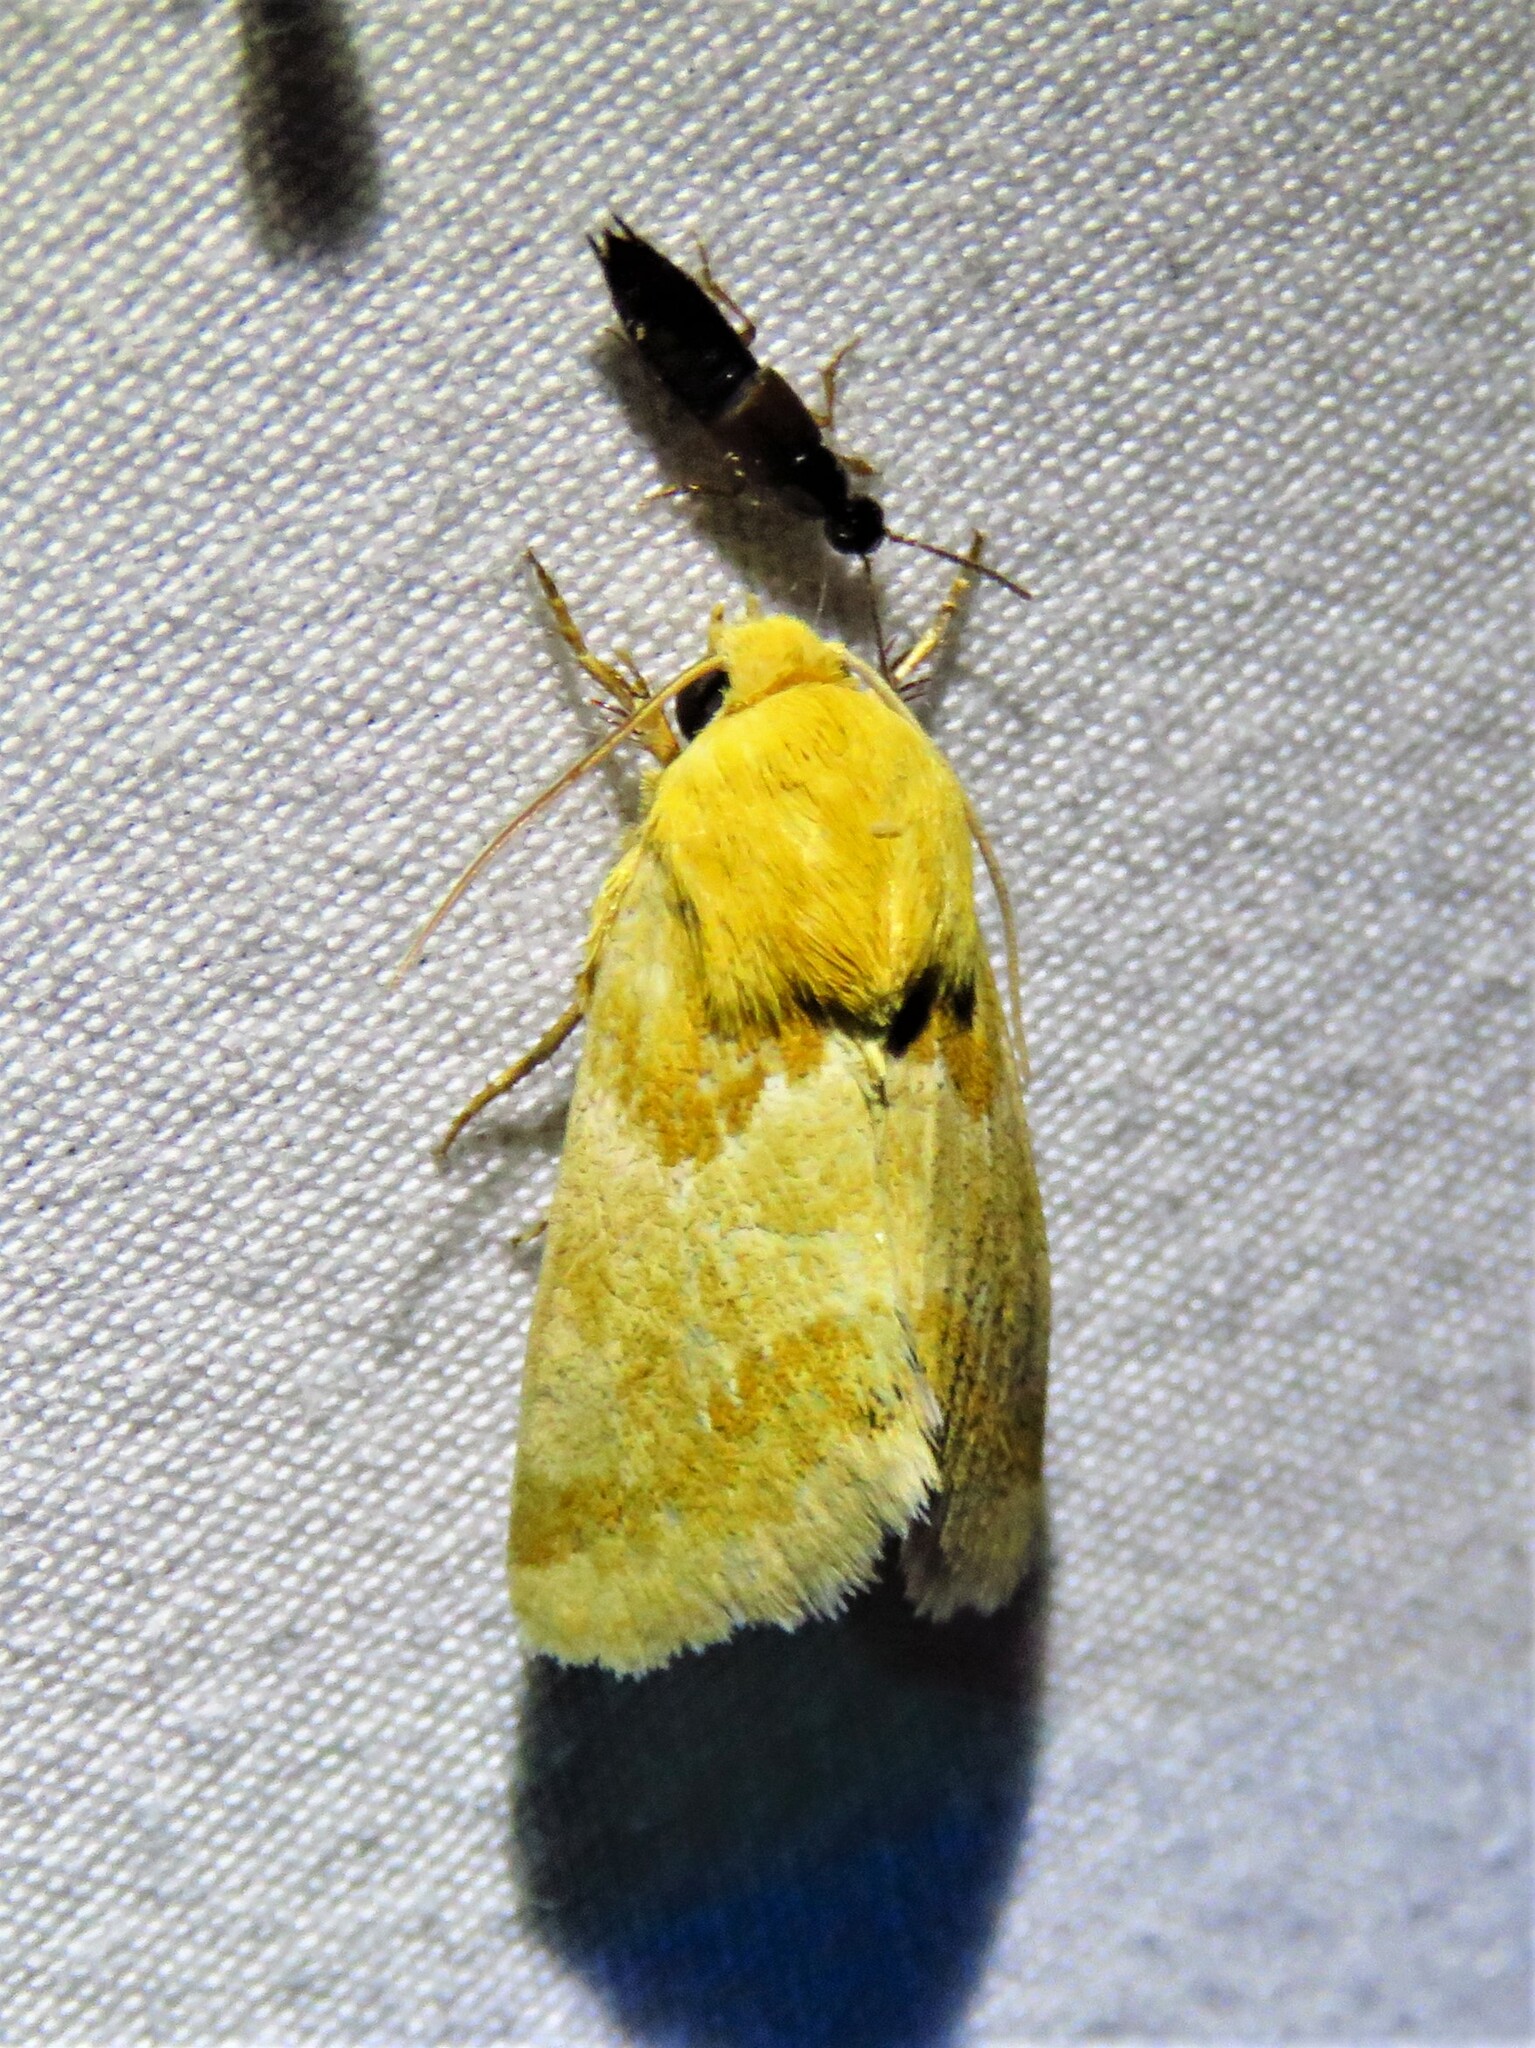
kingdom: Animalia
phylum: Arthropoda
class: Insecta
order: Lepidoptera
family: Noctuidae
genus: Schinia
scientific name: Schinia siren
